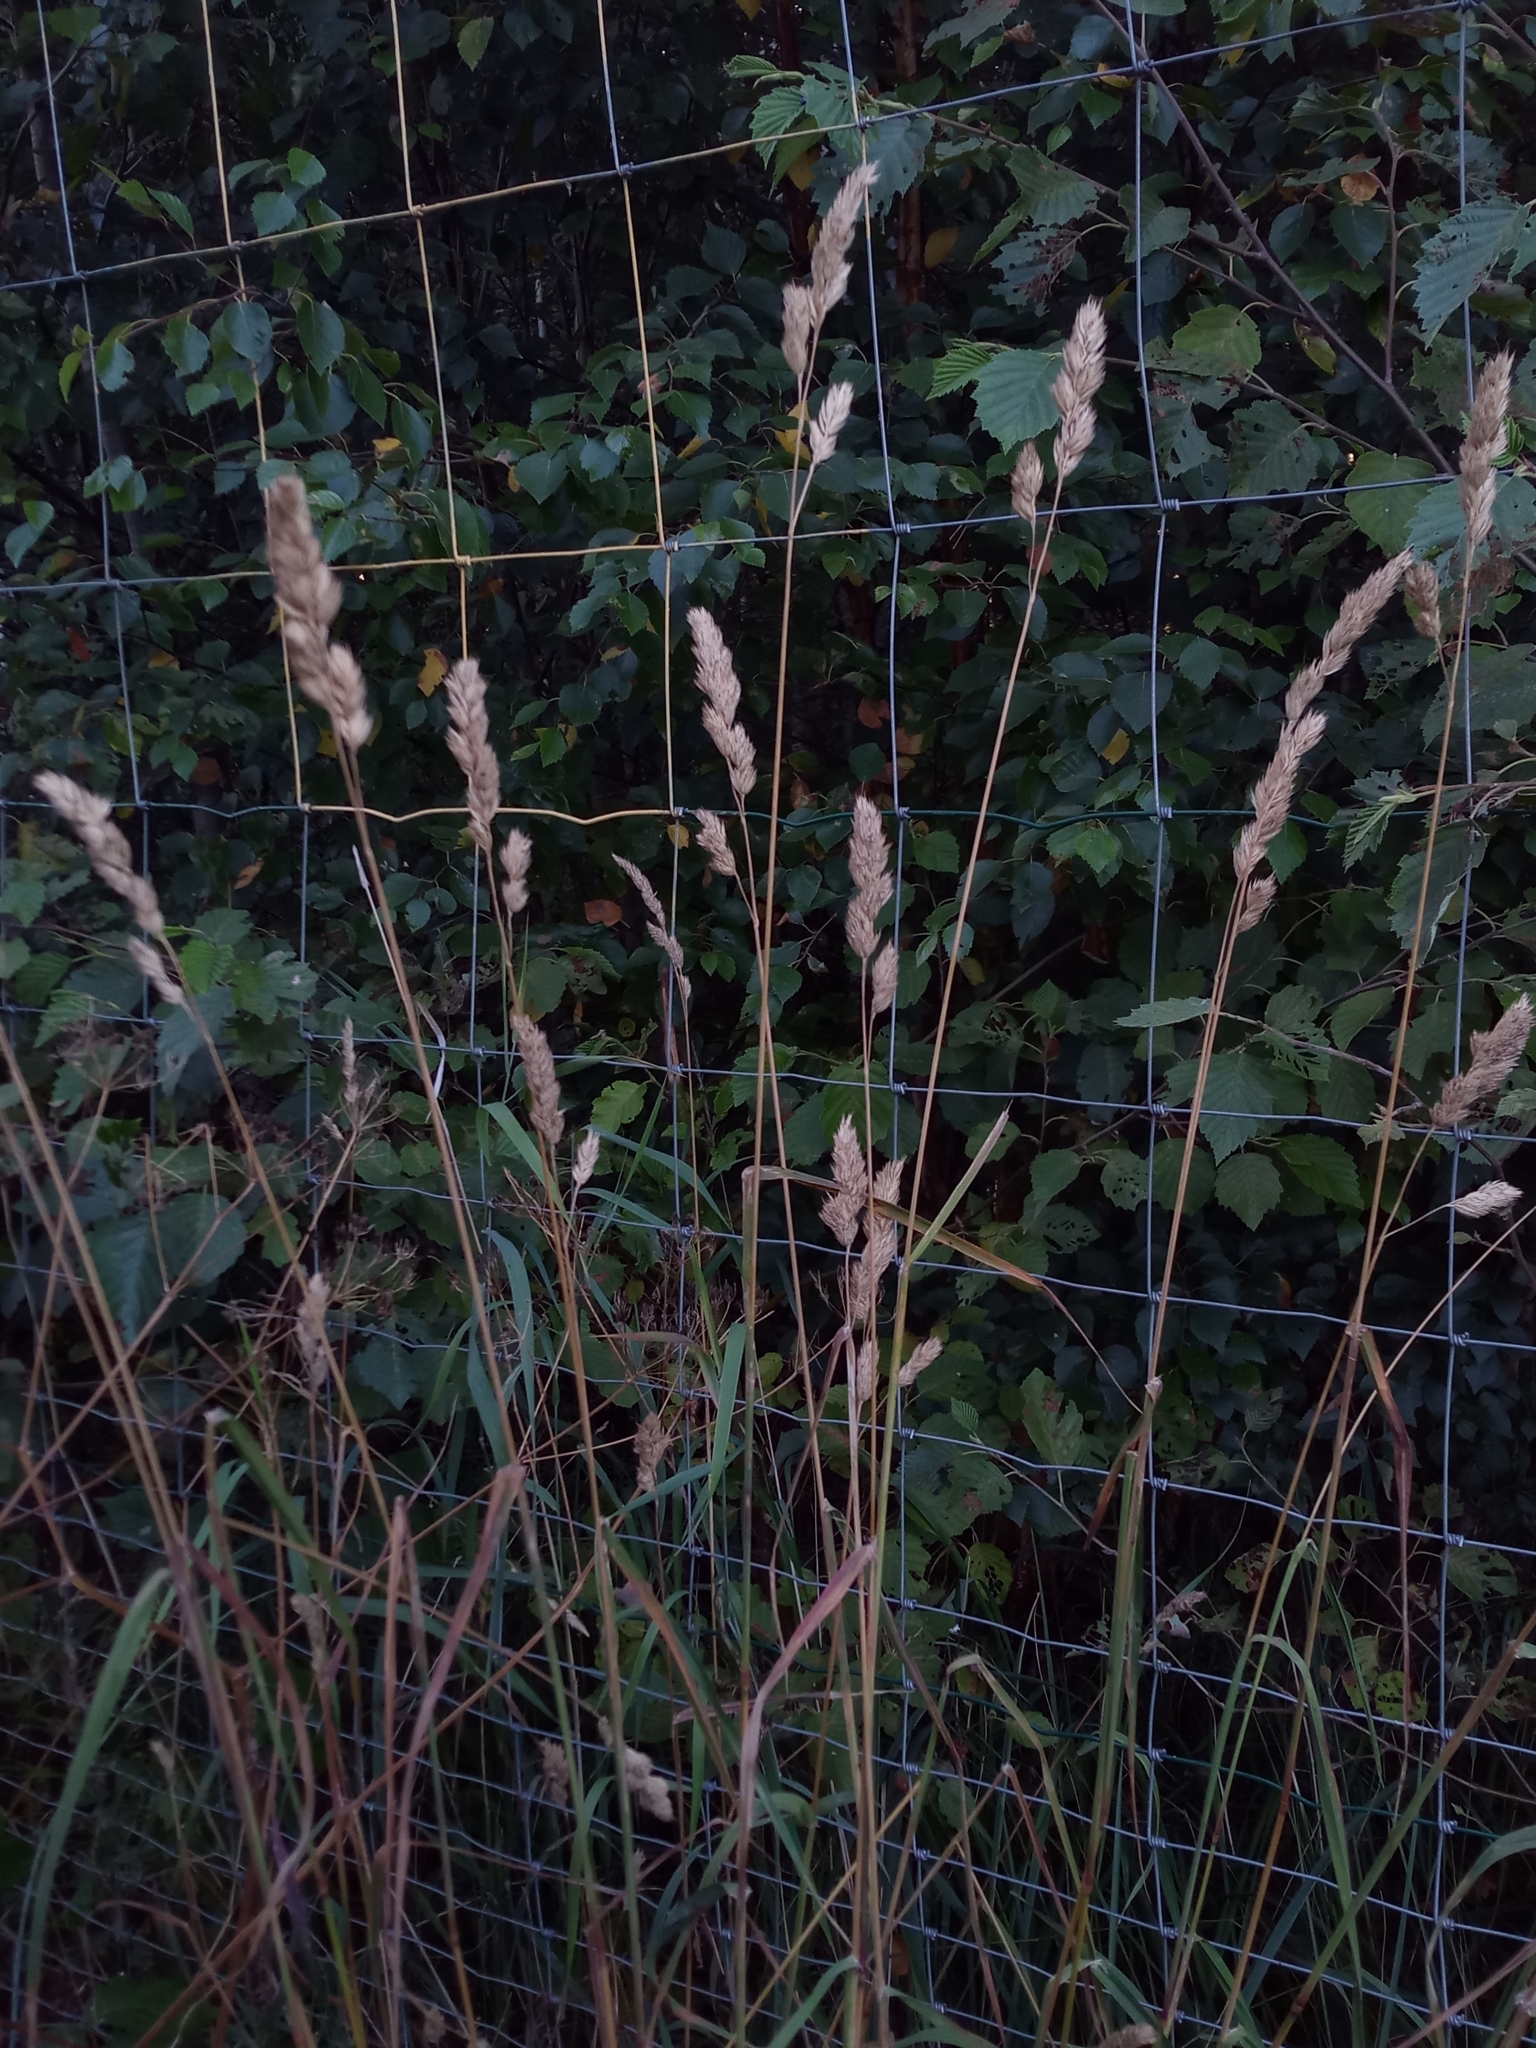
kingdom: Plantae
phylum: Tracheophyta
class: Liliopsida
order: Poales
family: Poaceae
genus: Dactylis
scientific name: Dactylis glomerata
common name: Orchardgrass
